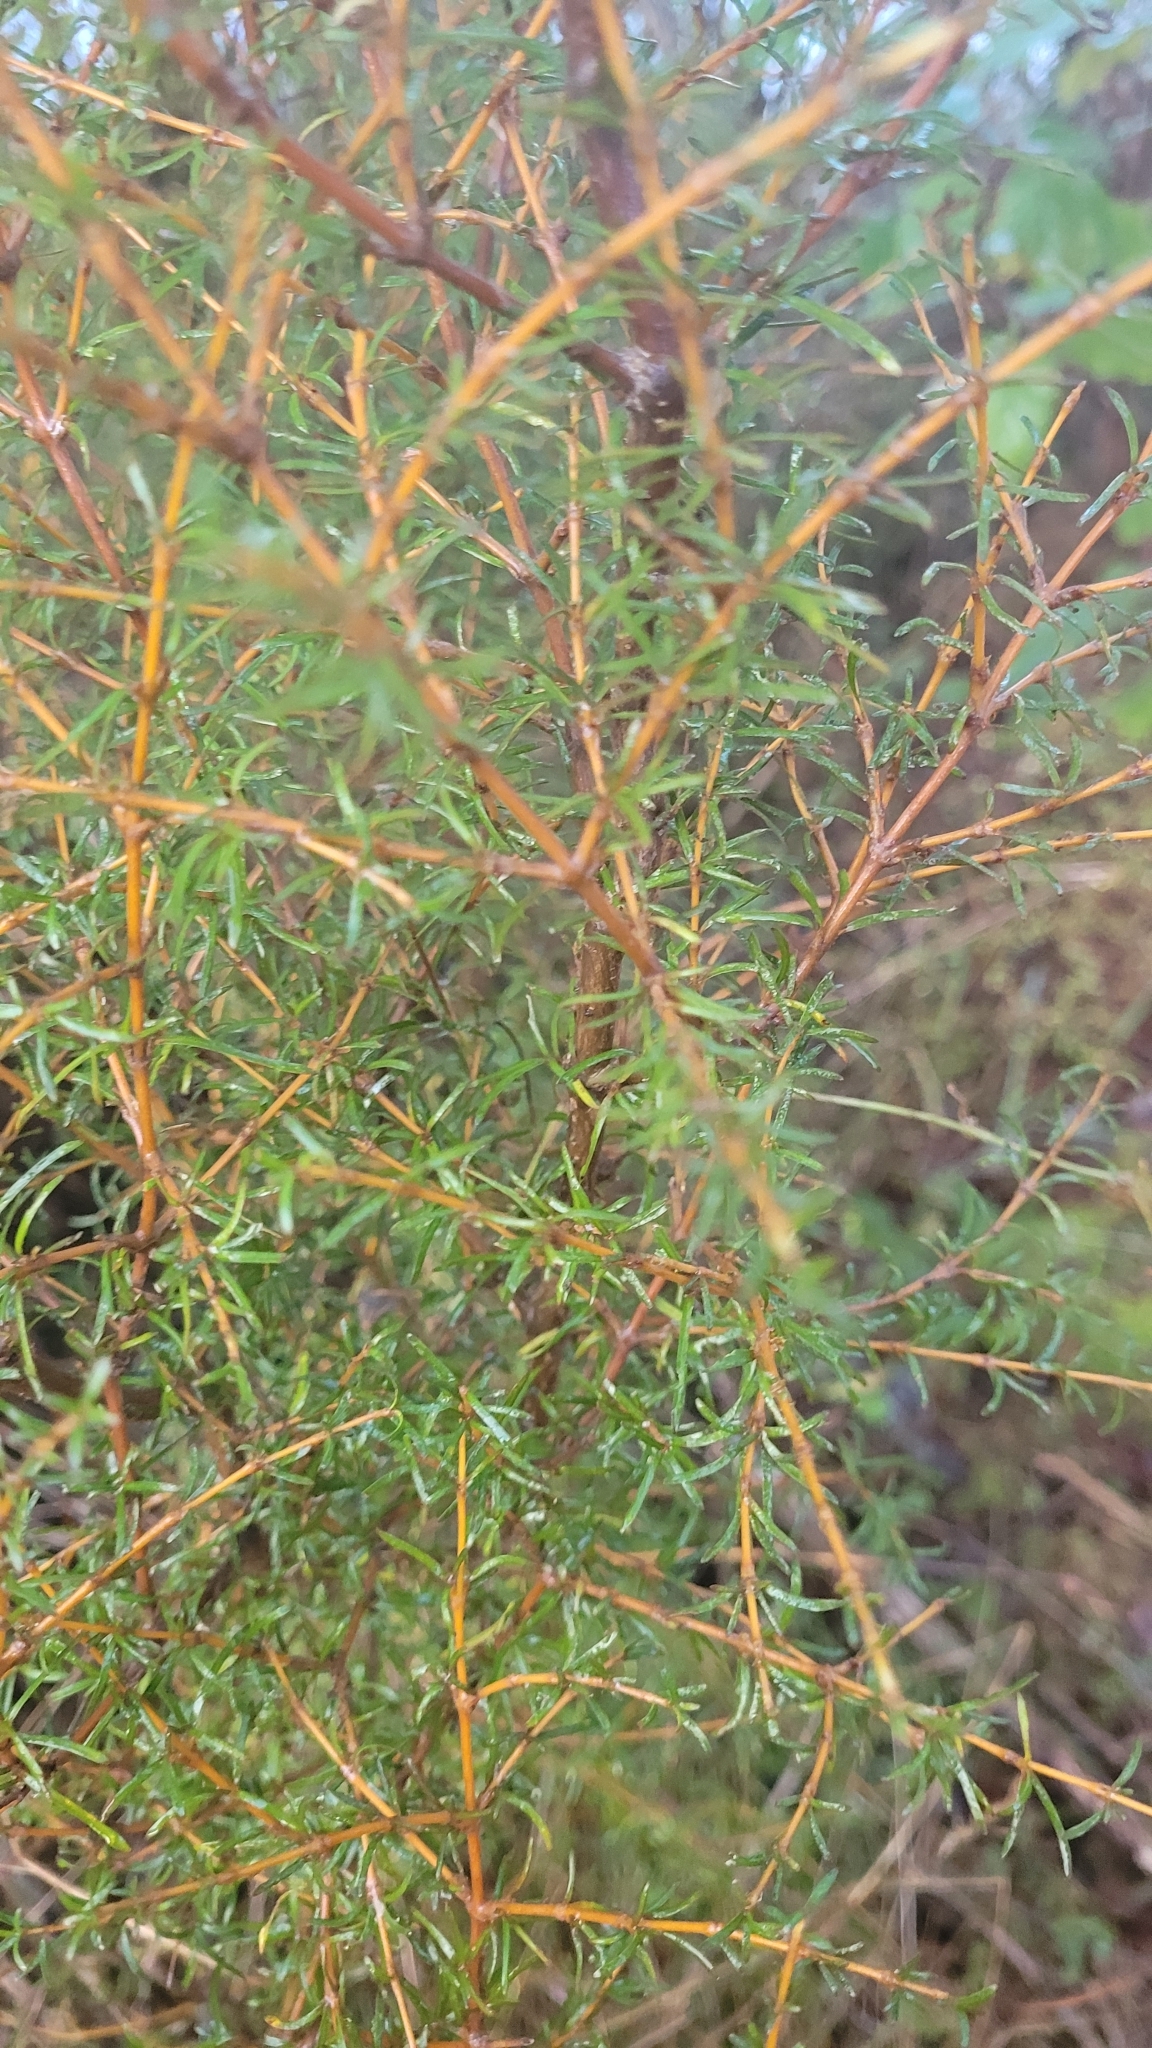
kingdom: Plantae
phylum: Tracheophyta
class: Magnoliopsida
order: Gentianales
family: Rubiaceae
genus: Coprosma
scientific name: Coprosma rugosa
